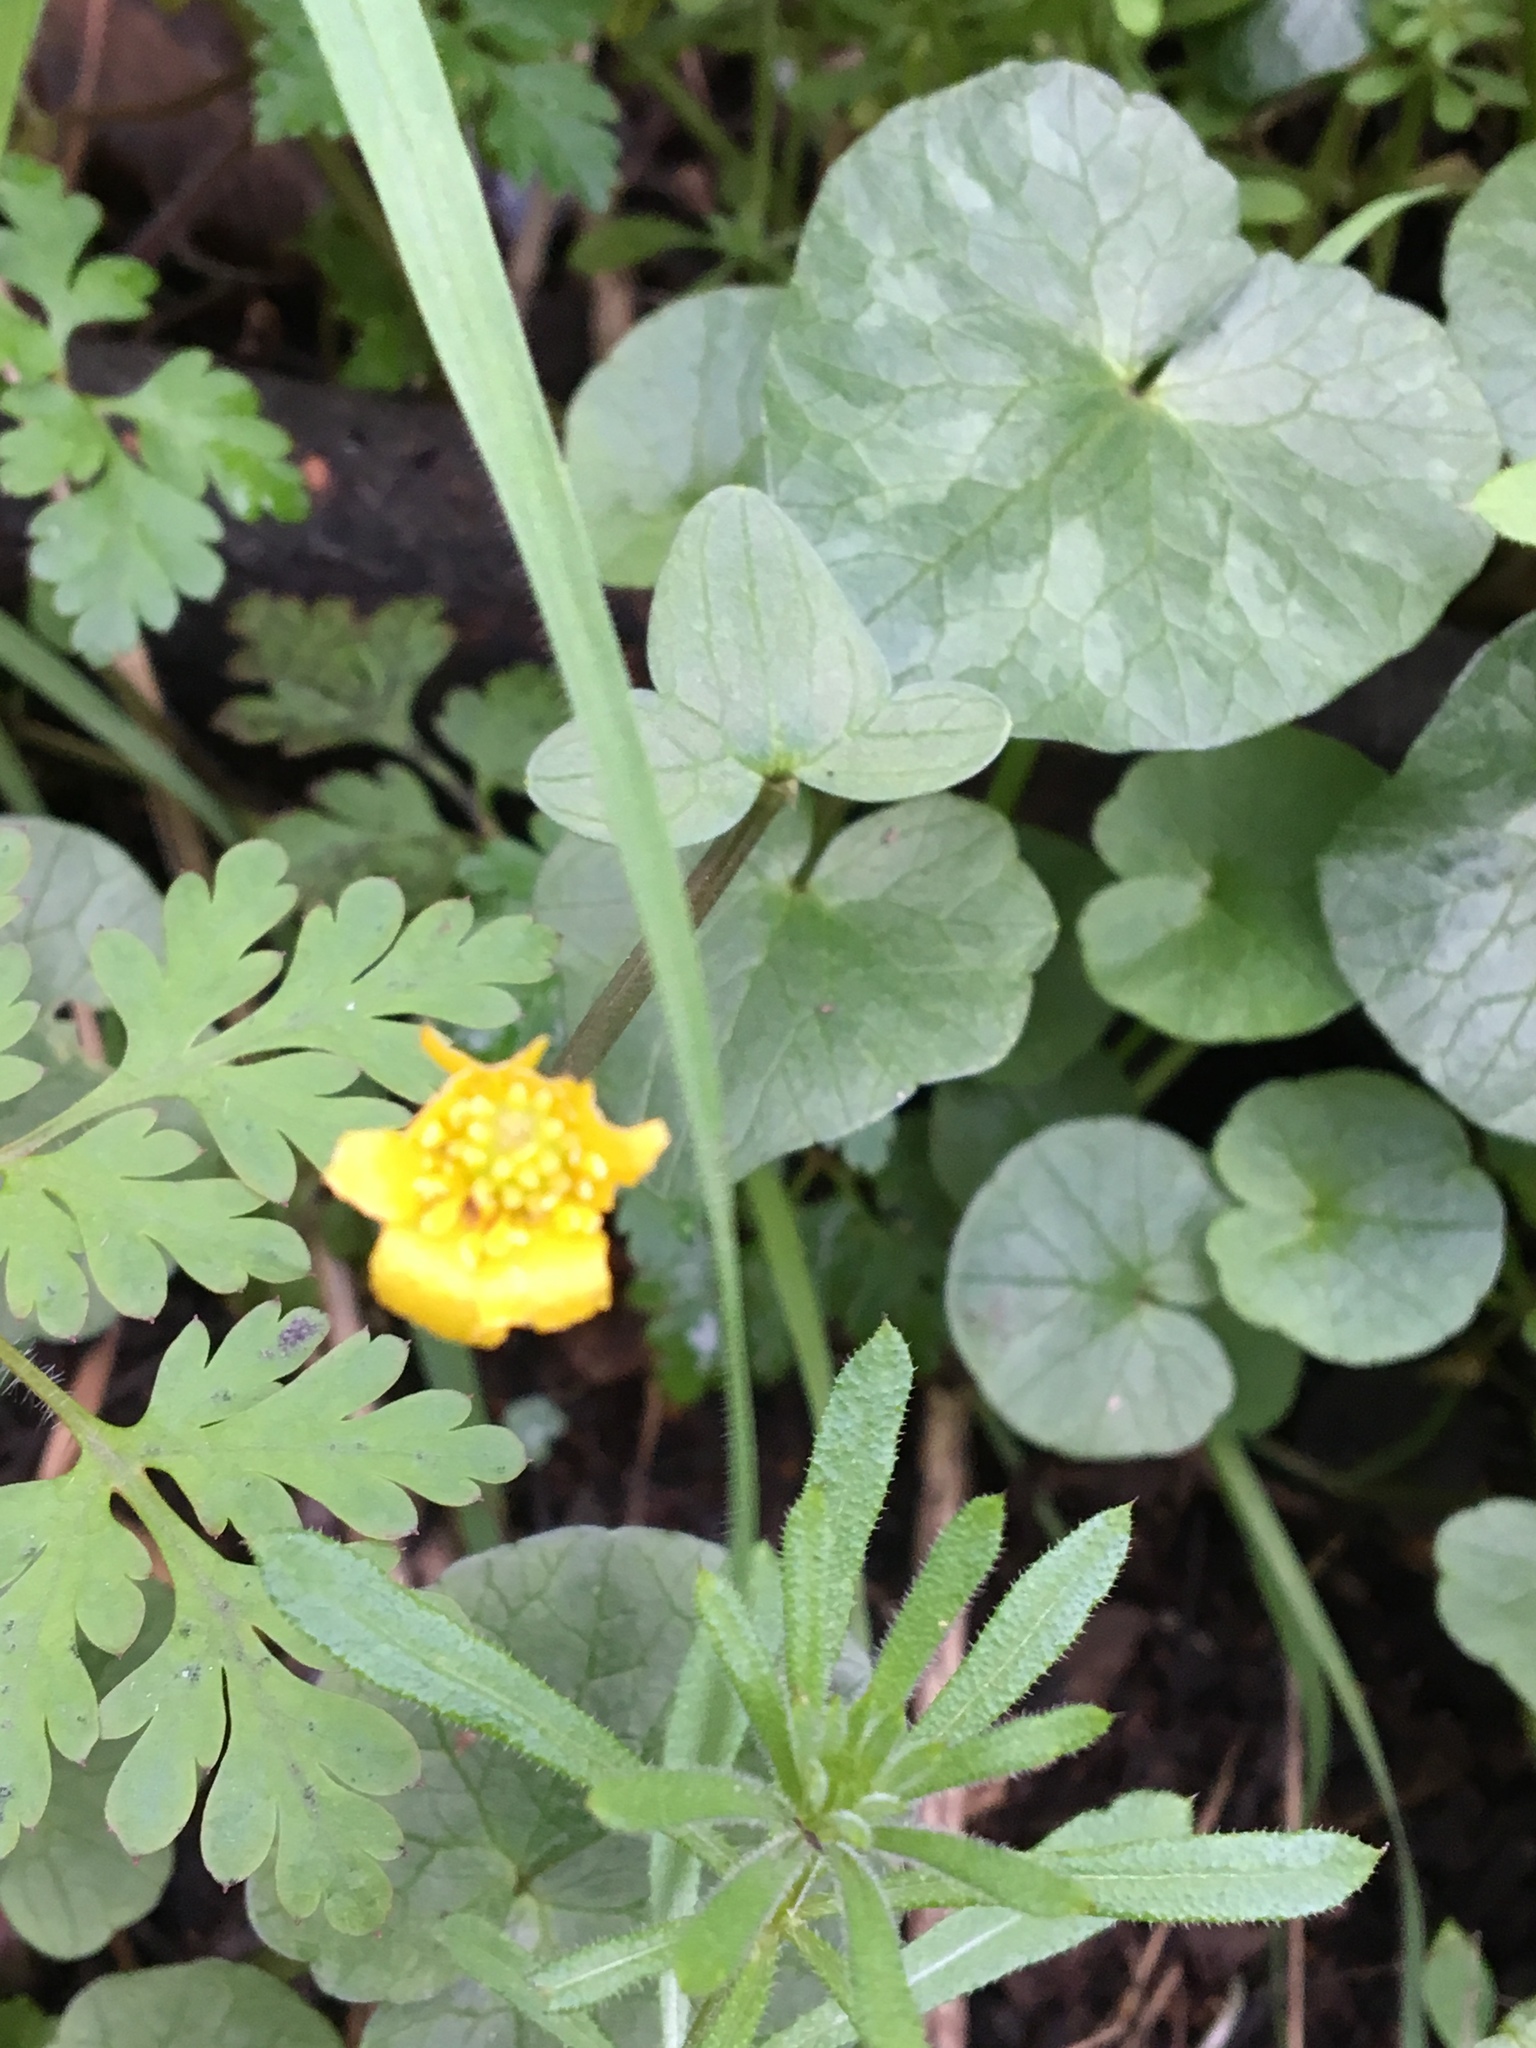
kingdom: Plantae
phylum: Tracheophyta
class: Magnoliopsida
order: Ranunculales
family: Ranunculaceae
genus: Ficaria
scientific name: Ficaria verna
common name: Lesser celandine
